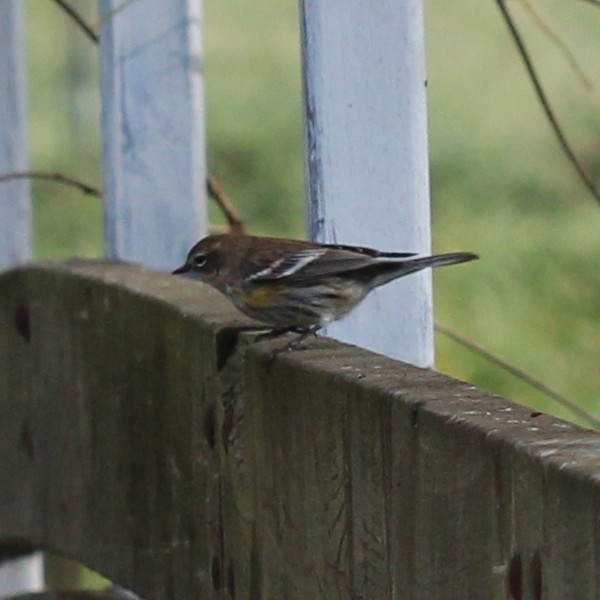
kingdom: Animalia
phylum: Chordata
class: Aves
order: Passeriformes
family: Parulidae
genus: Setophaga
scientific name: Setophaga coronata
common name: Myrtle warbler
